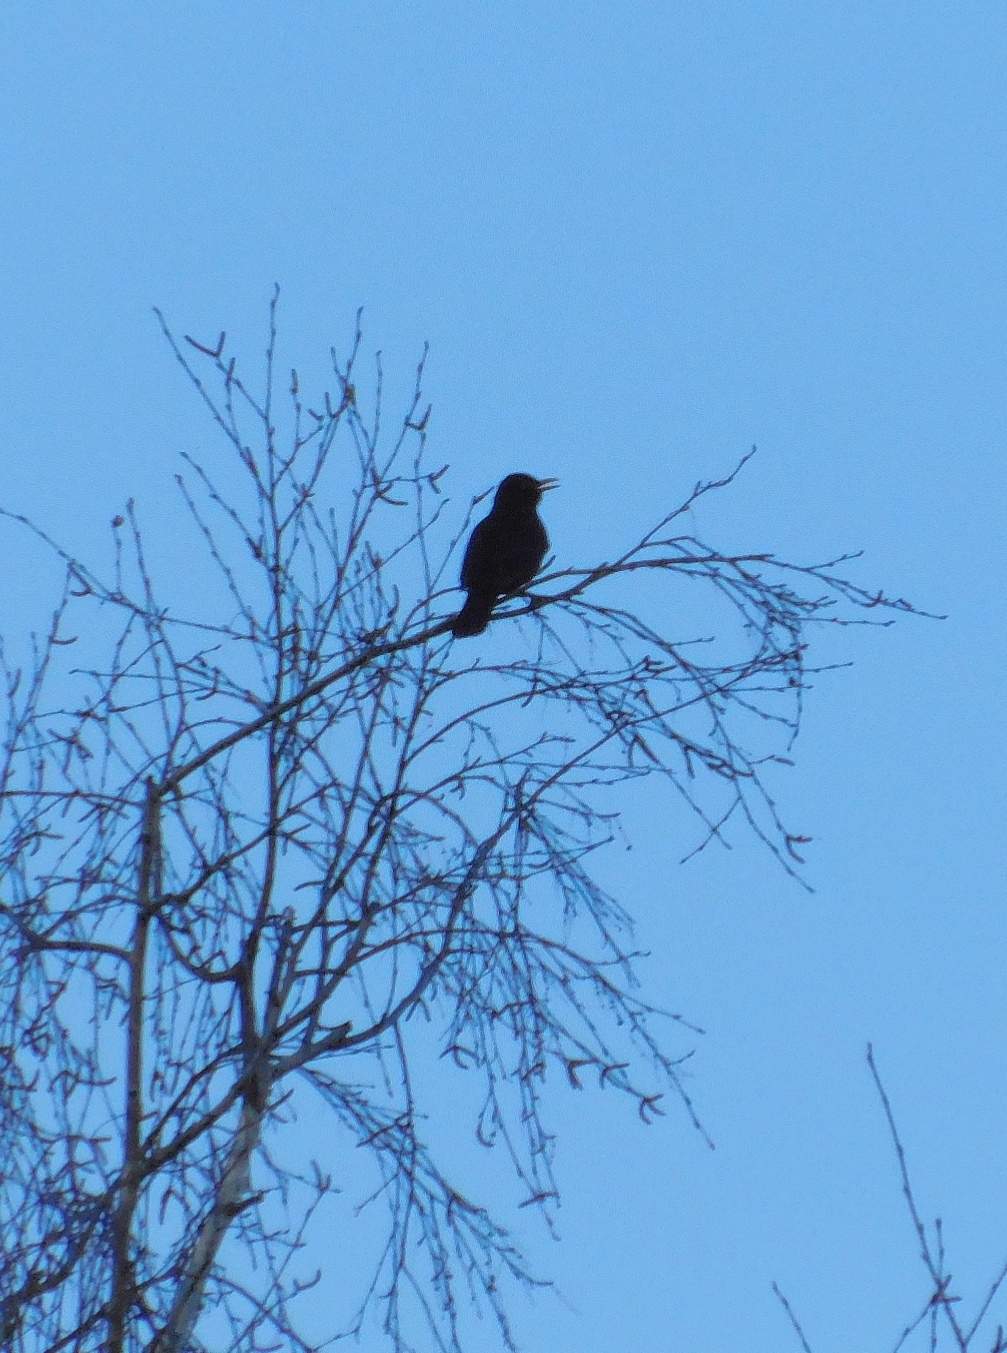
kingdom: Animalia
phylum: Chordata
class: Aves
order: Passeriformes
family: Turdidae
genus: Turdus
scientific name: Turdus merula
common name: Common blackbird
